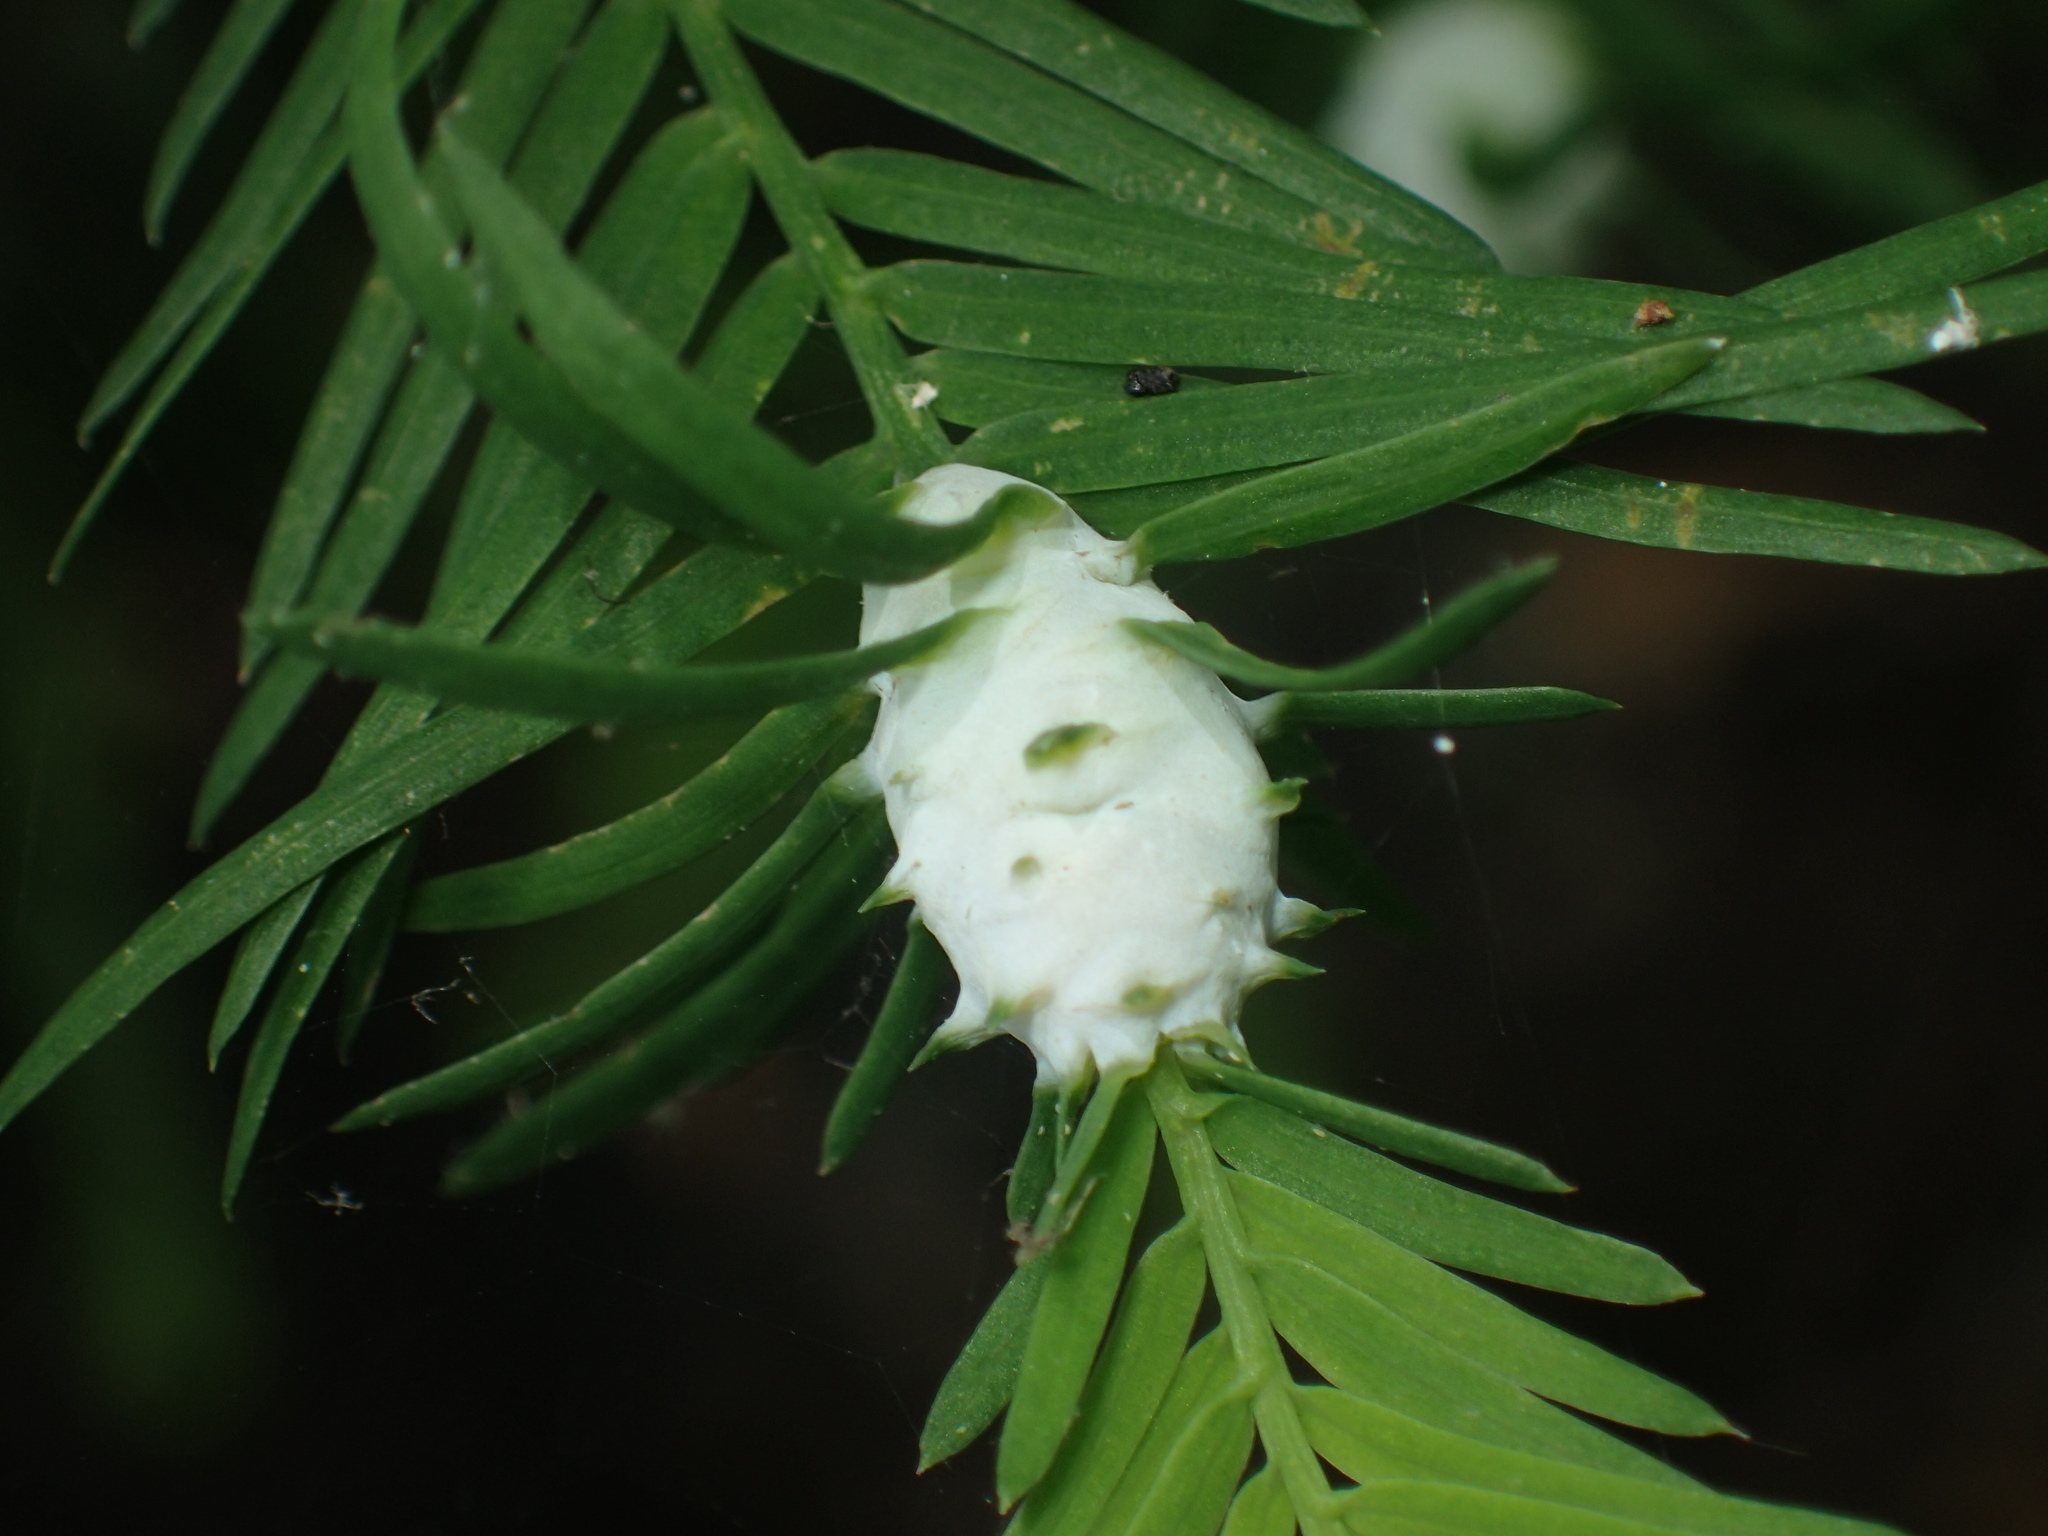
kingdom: Animalia
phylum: Arthropoda
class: Insecta
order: Diptera
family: Cecidomyiidae
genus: Taxodiomyia
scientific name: Taxodiomyia cupressiananassa
